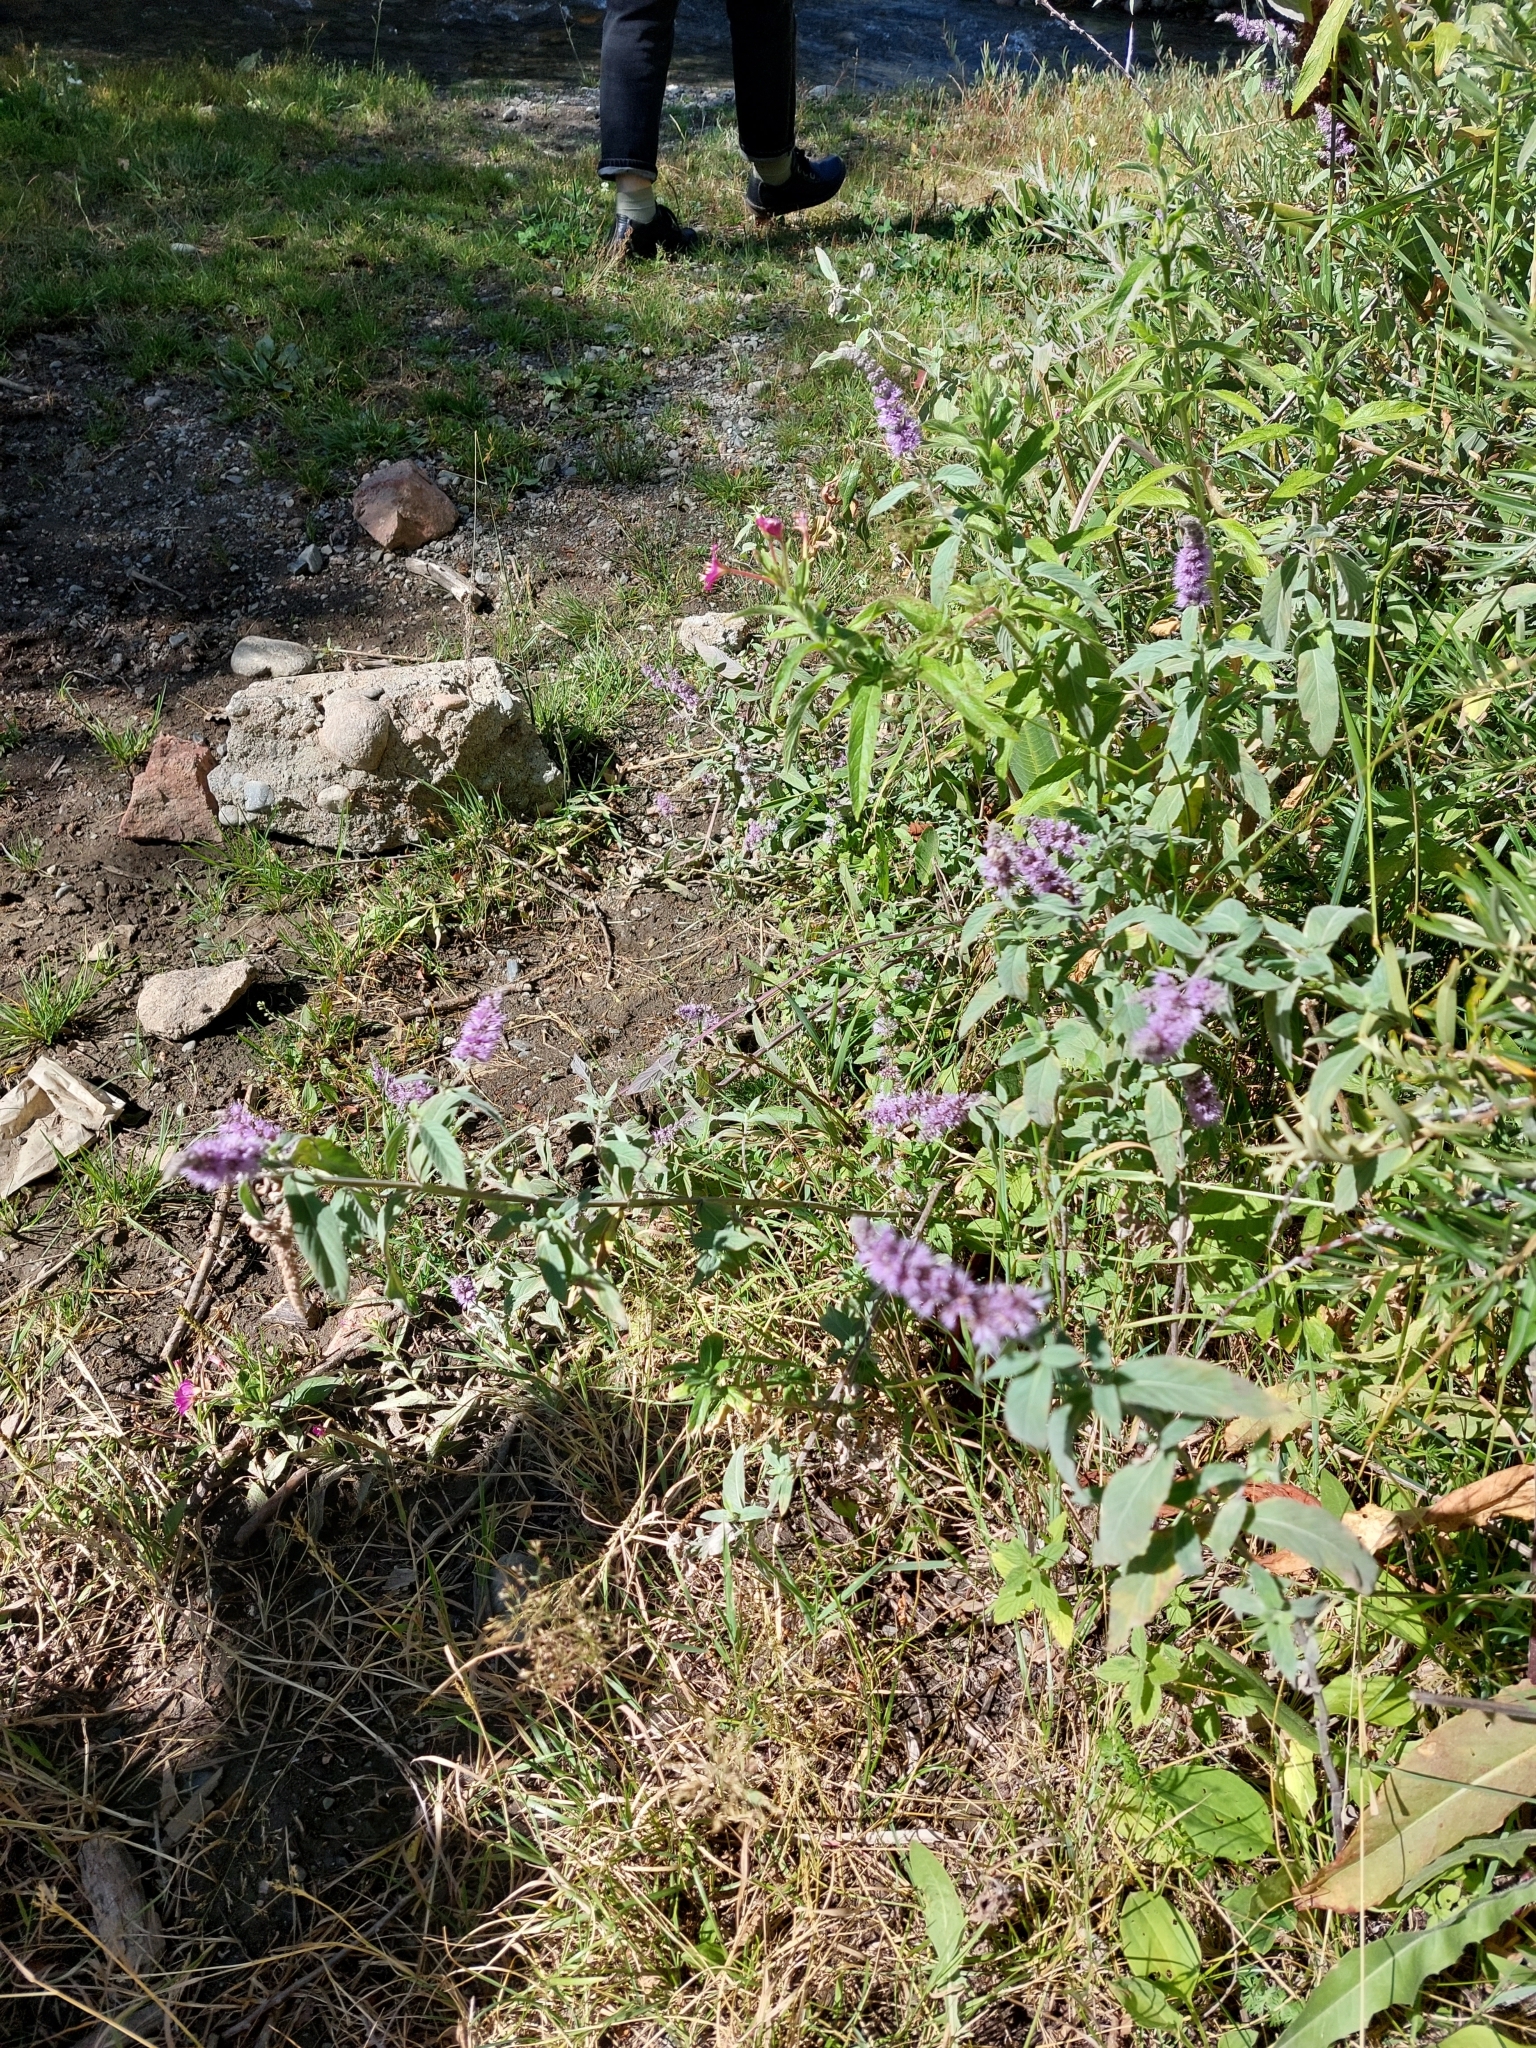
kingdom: Plantae
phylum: Tracheophyta
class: Magnoliopsida
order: Lamiales
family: Lamiaceae
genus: Mentha
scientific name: Mentha longifolia
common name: Horse mint
